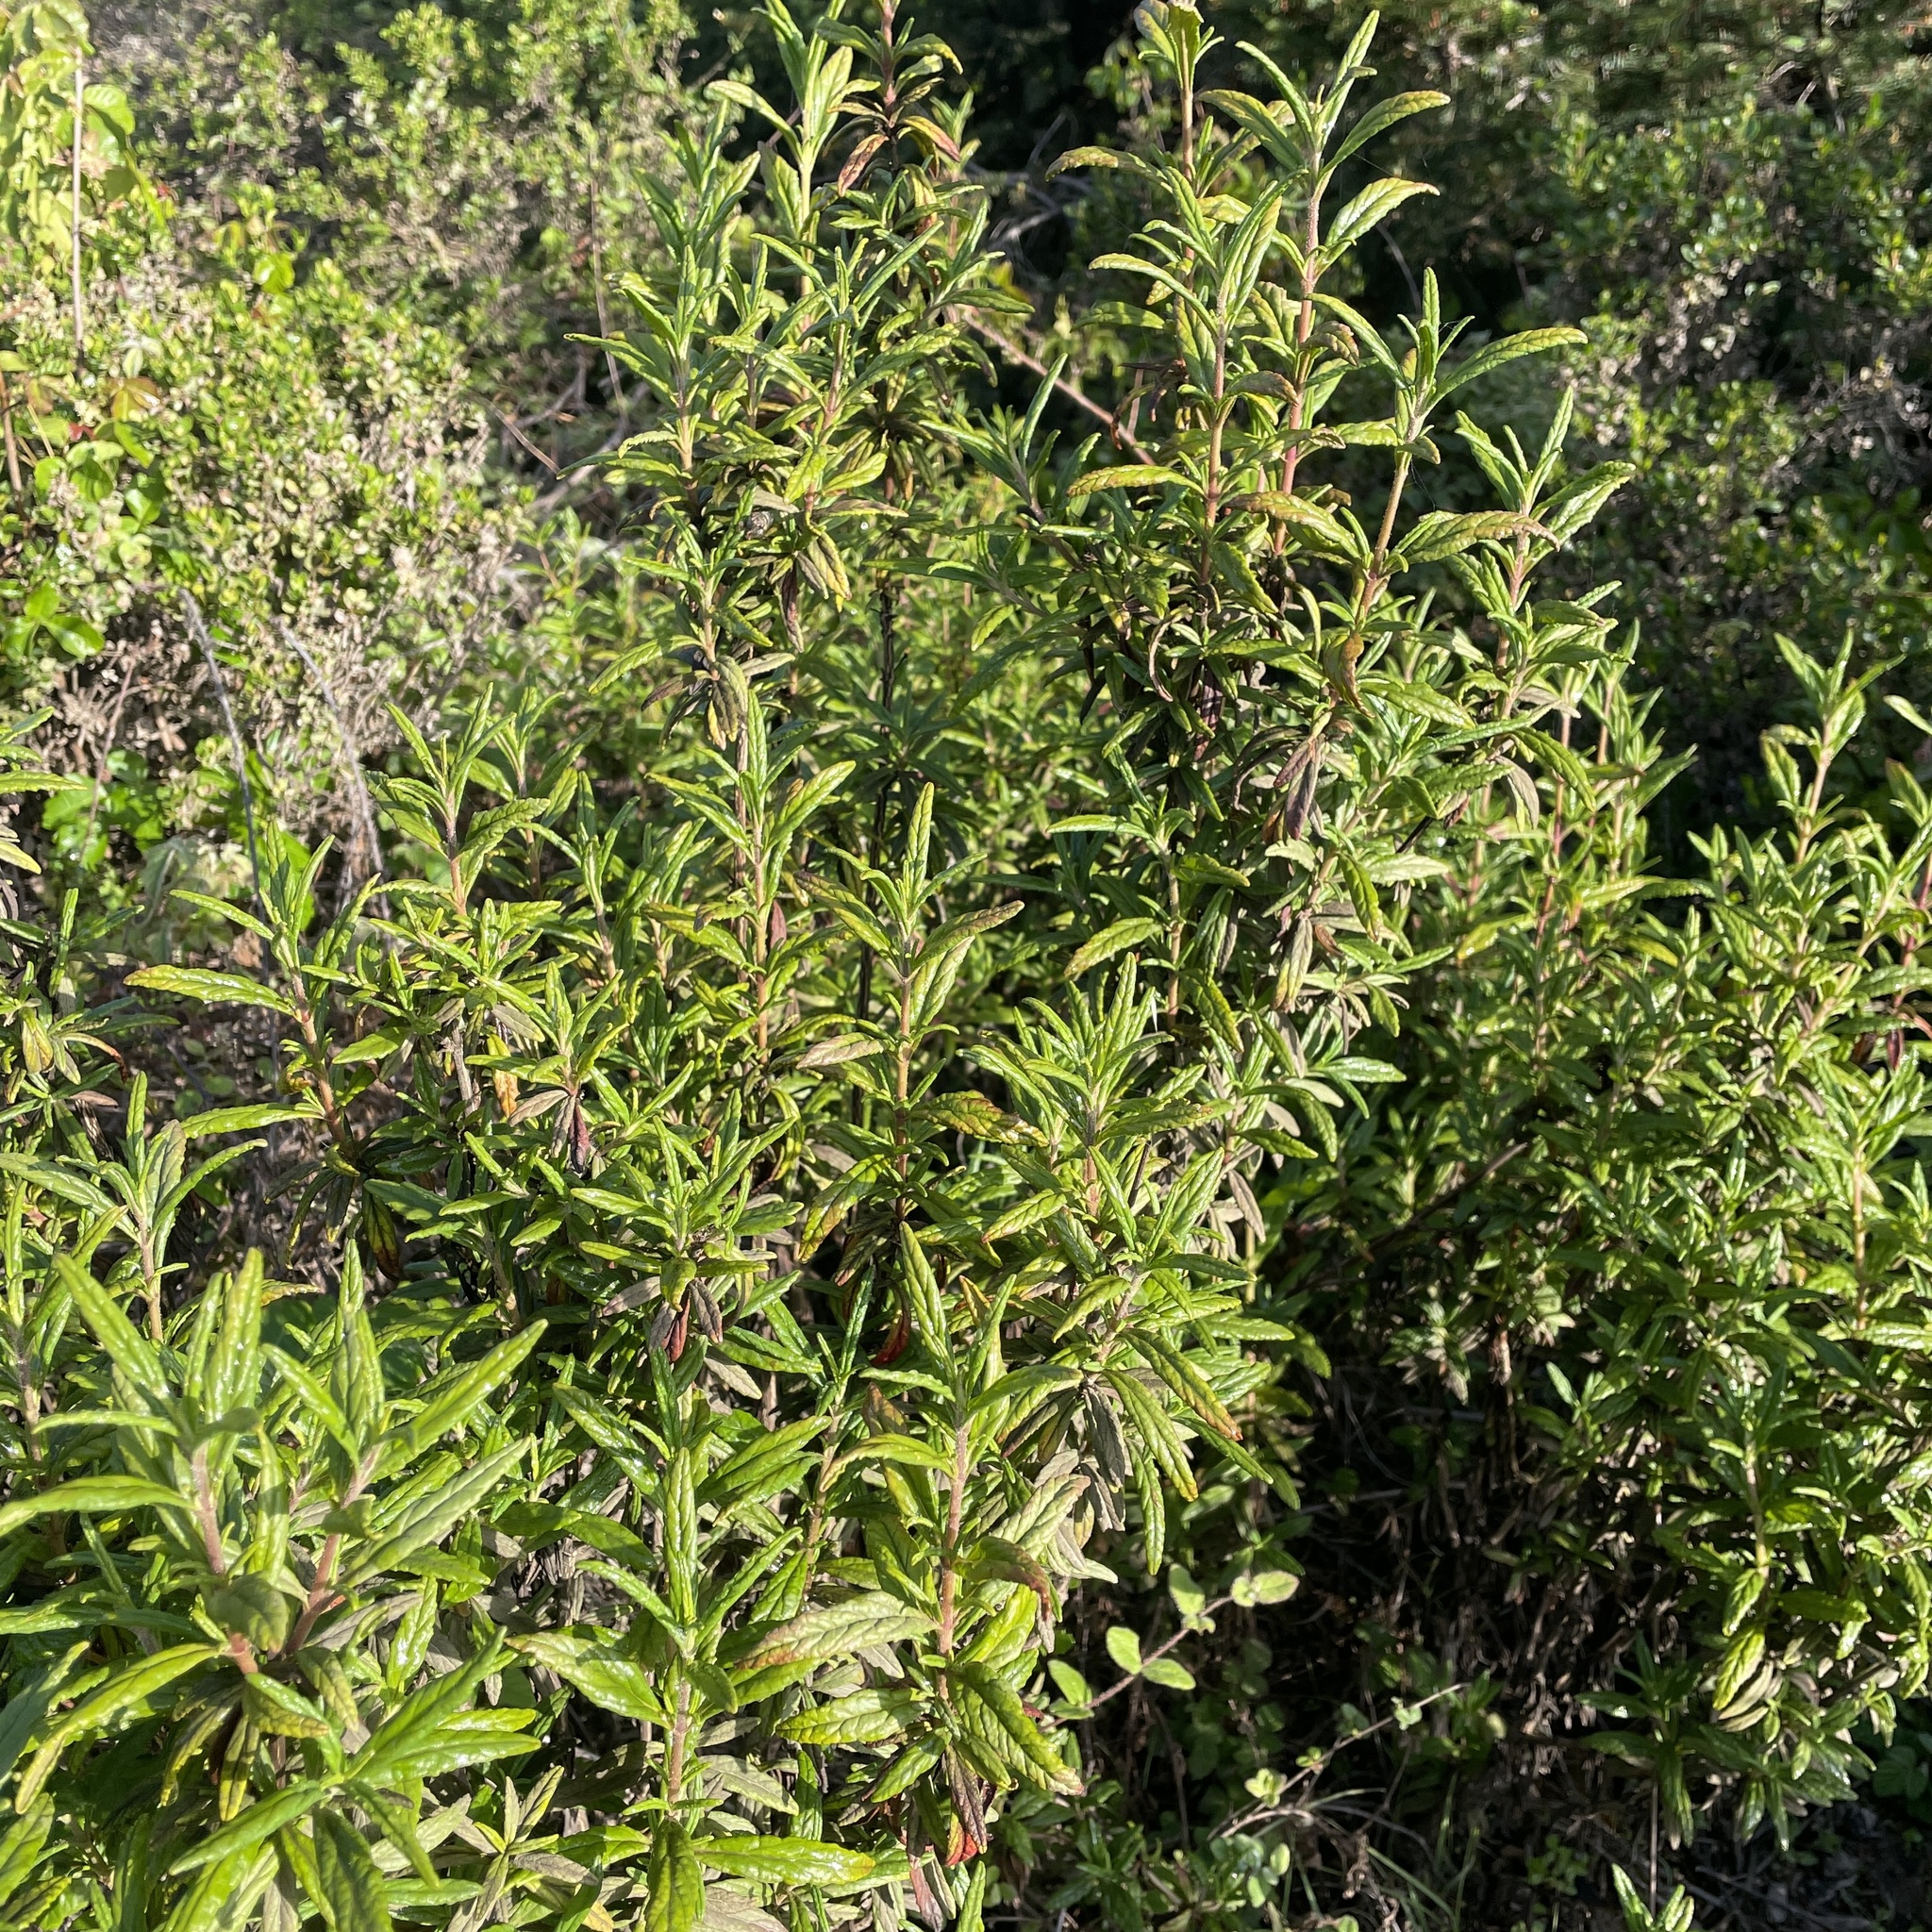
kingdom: Plantae
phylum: Tracheophyta
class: Magnoliopsida
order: Lamiales
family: Phrymaceae
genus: Diplacus
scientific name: Diplacus aurantiacus
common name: Bush monkey-flower
